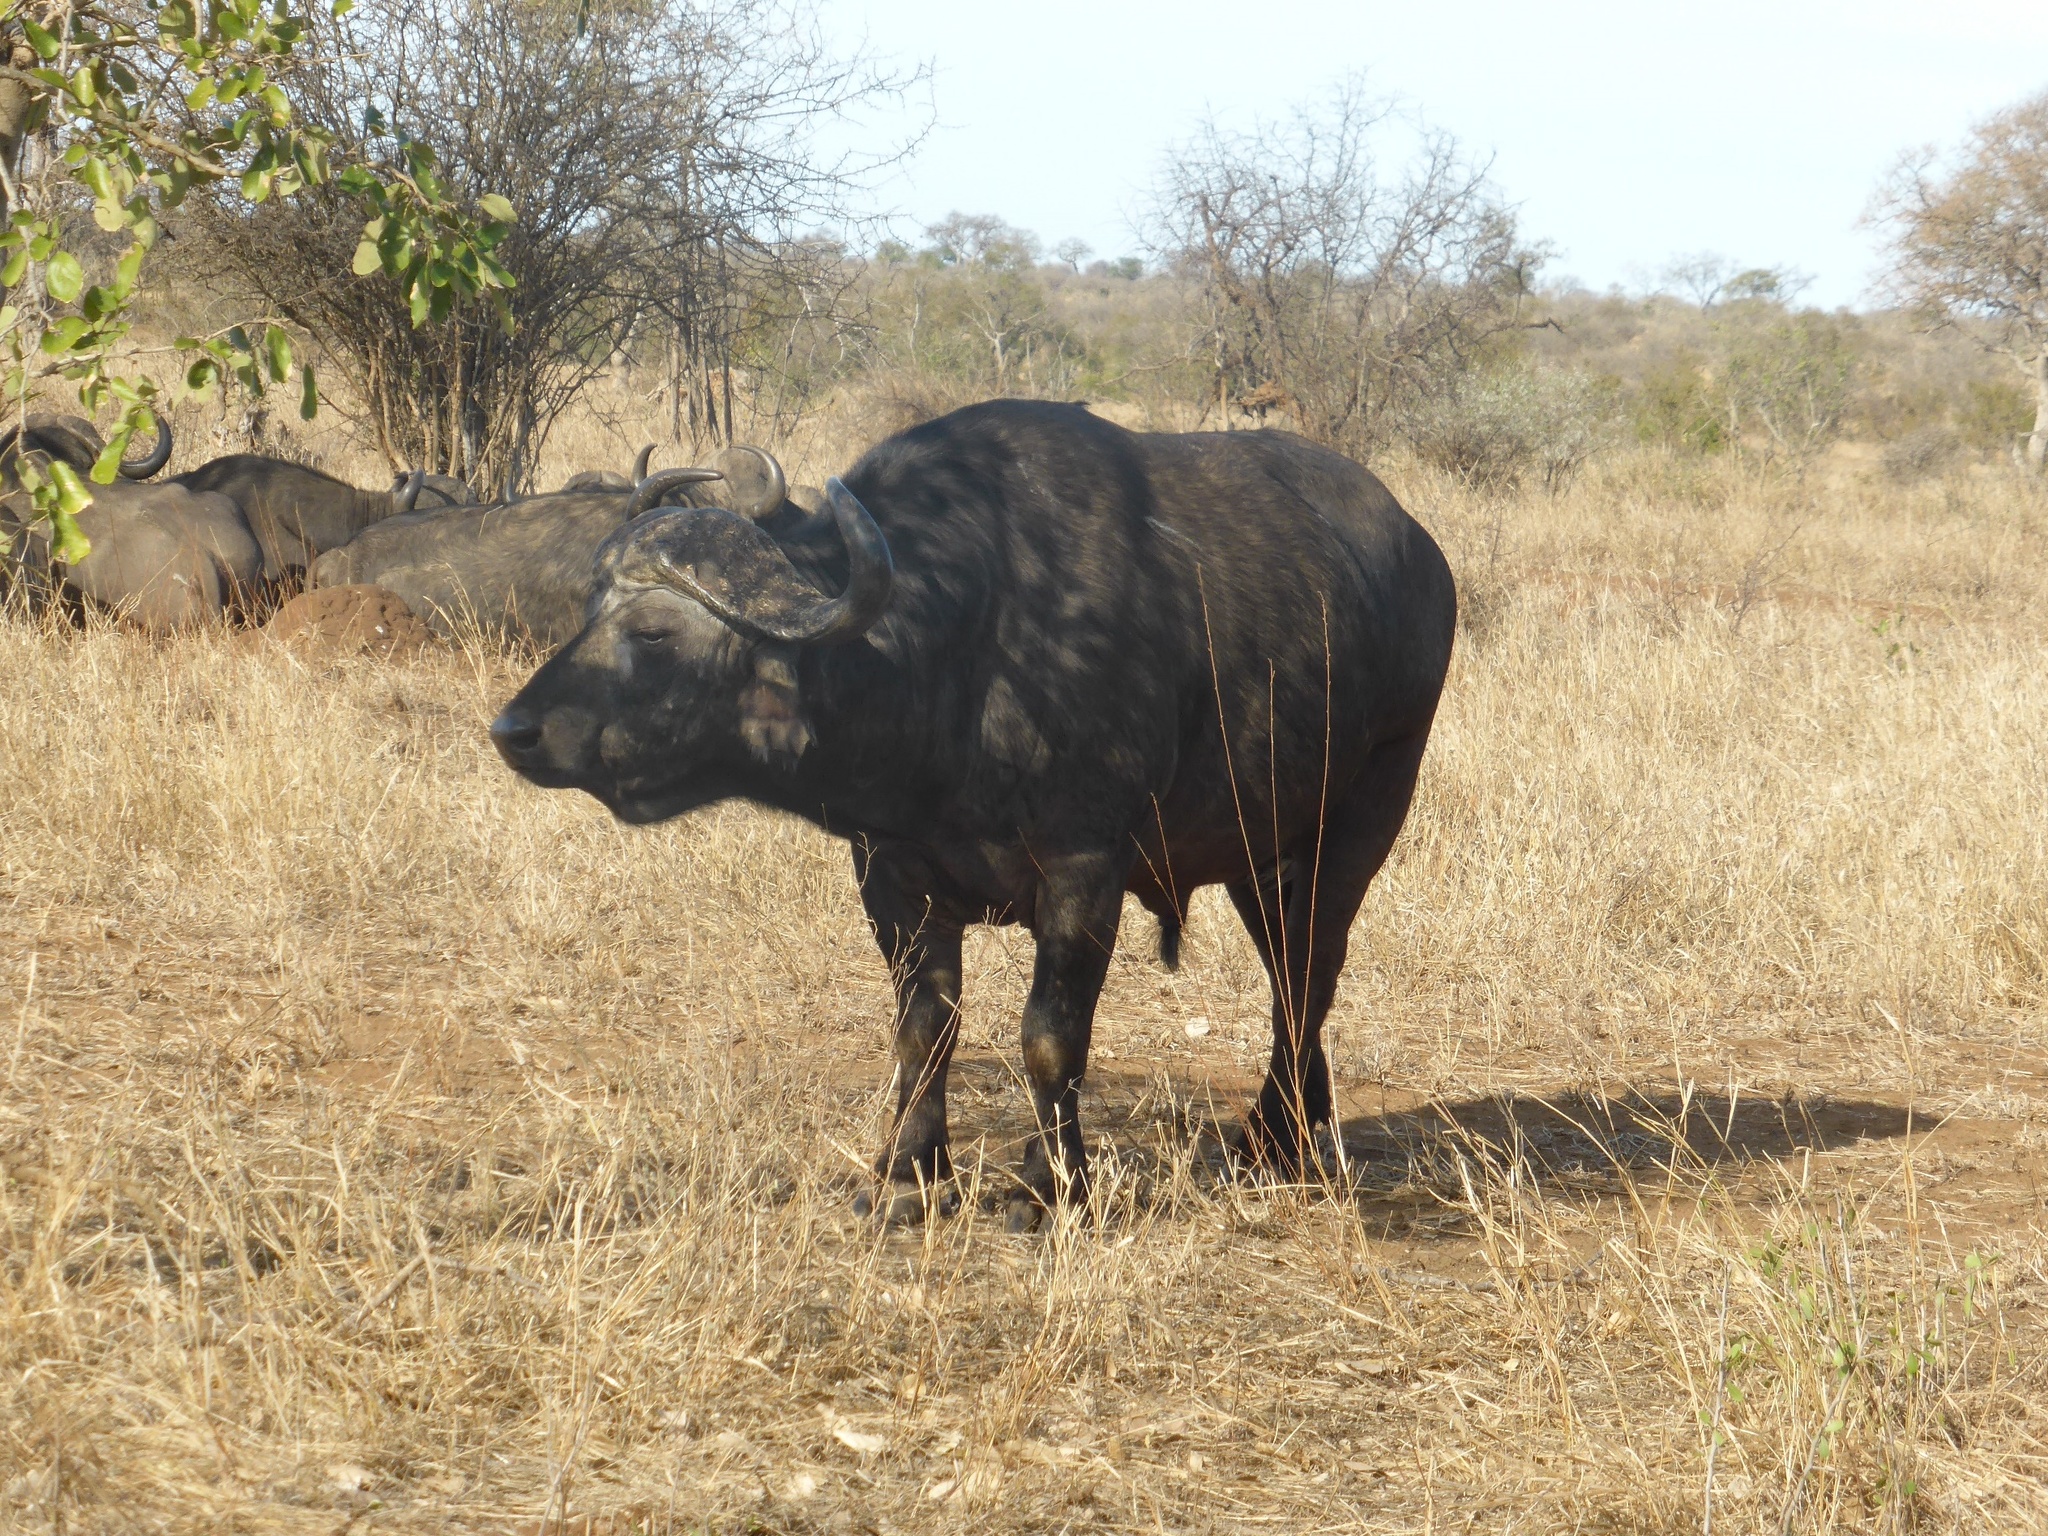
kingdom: Animalia
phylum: Chordata
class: Mammalia
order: Artiodactyla
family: Bovidae
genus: Syncerus
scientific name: Syncerus caffer
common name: African buffalo
